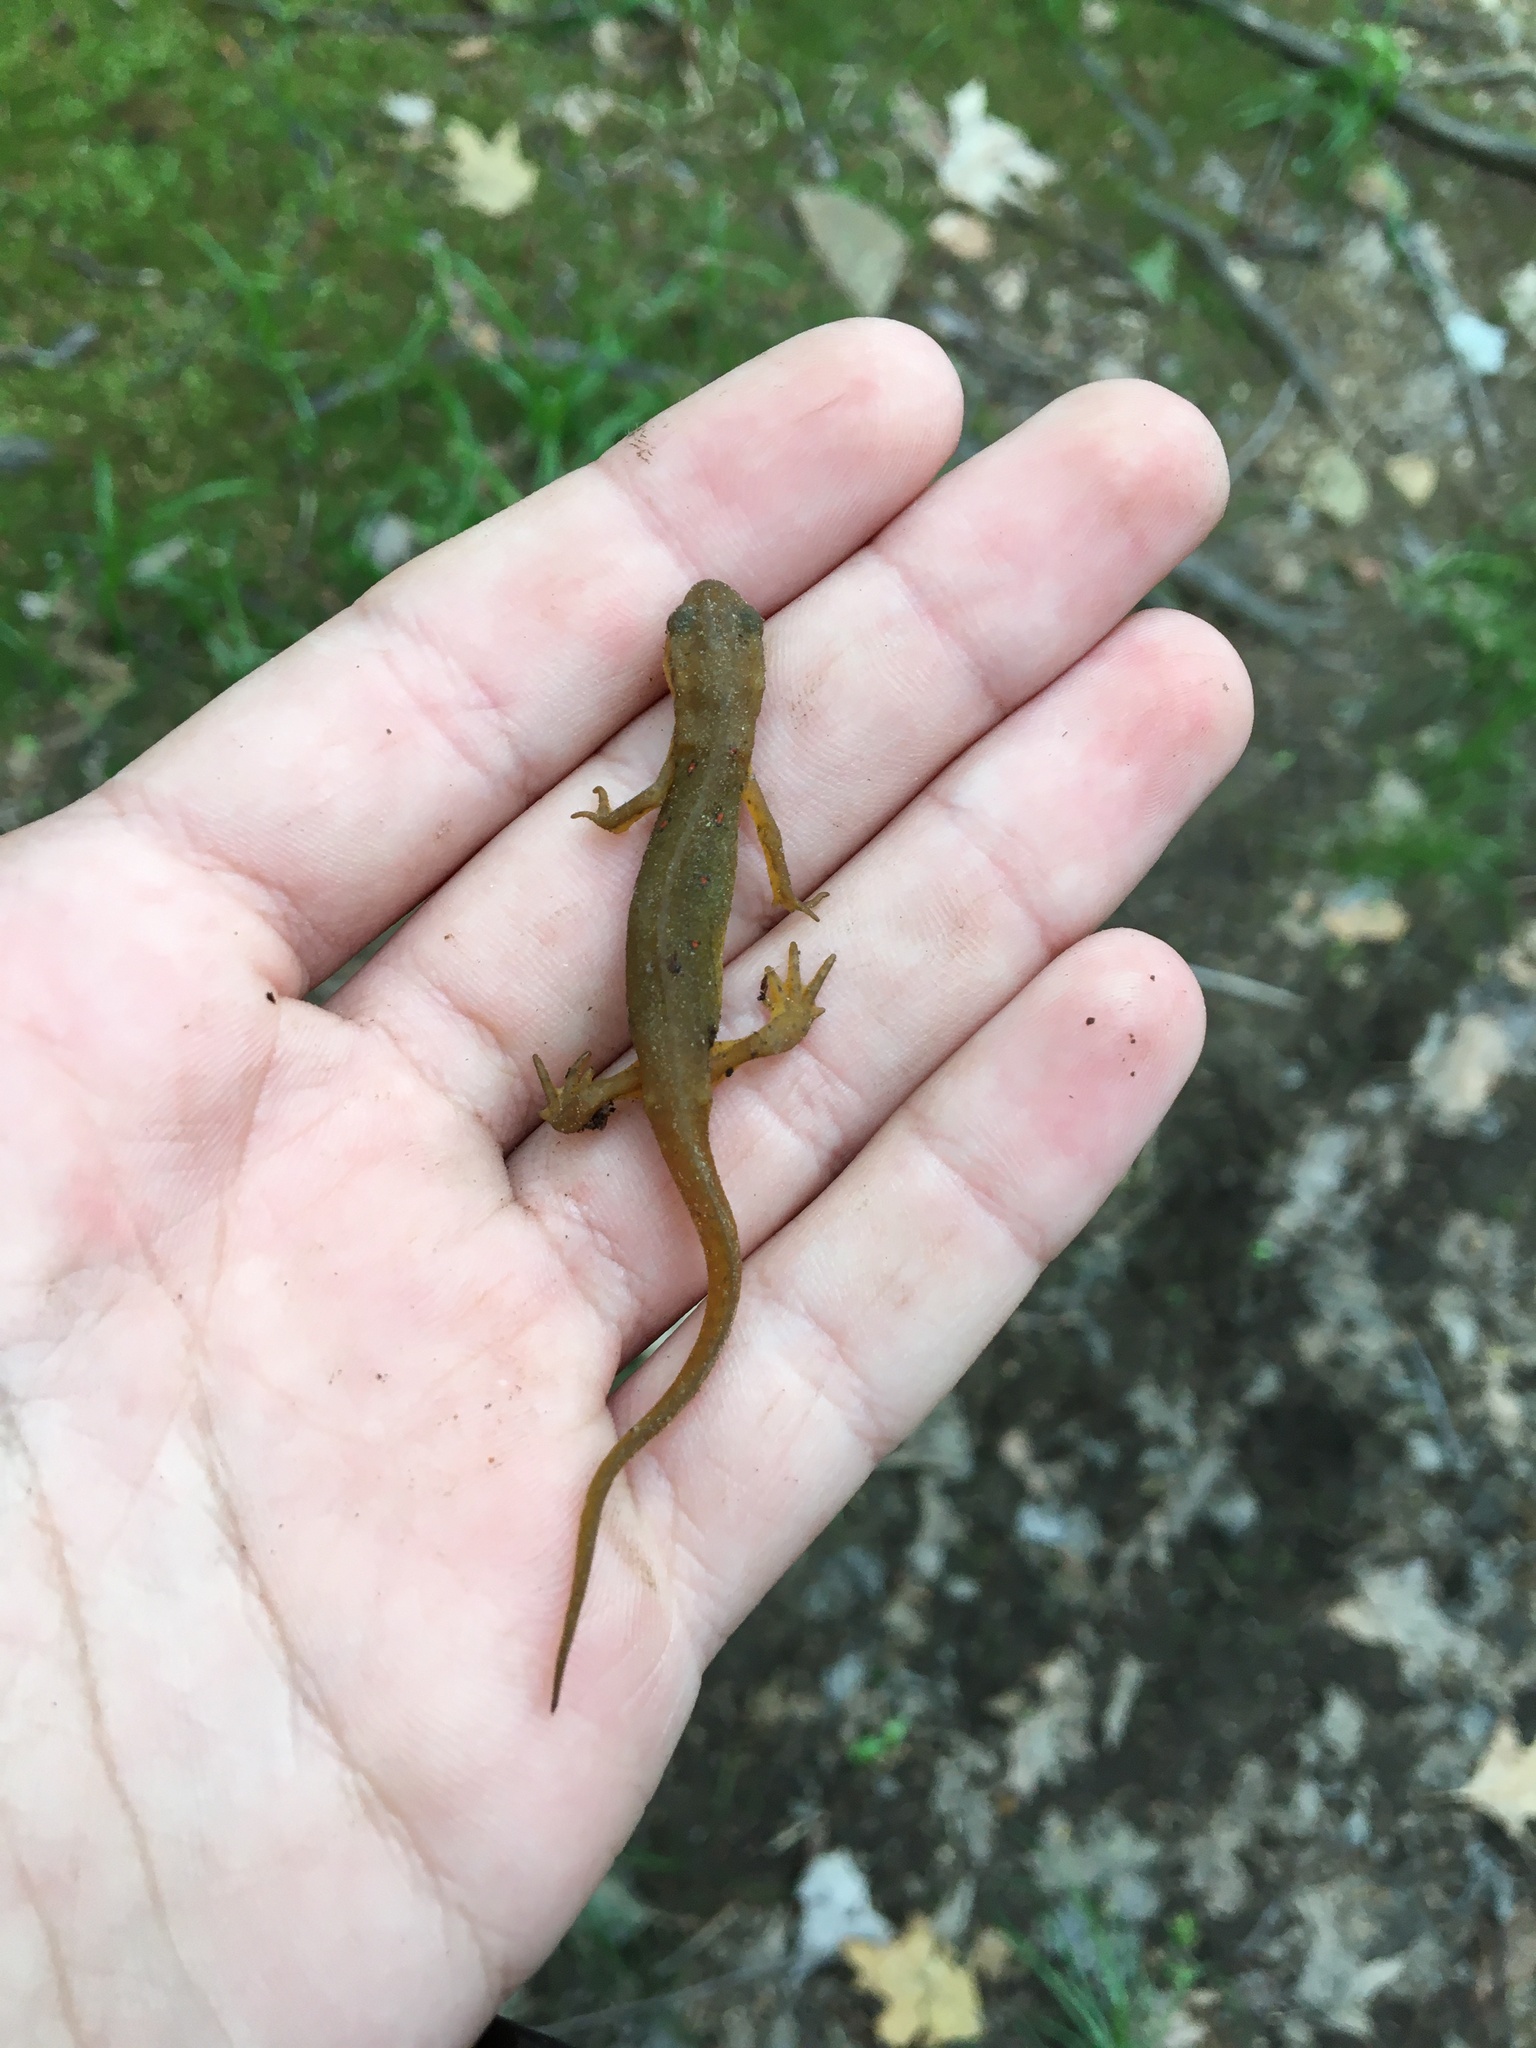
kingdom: Animalia
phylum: Chordata
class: Amphibia
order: Caudata
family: Salamandridae
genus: Notophthalmus
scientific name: Notophthalmus viridescens
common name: Eastern newt
